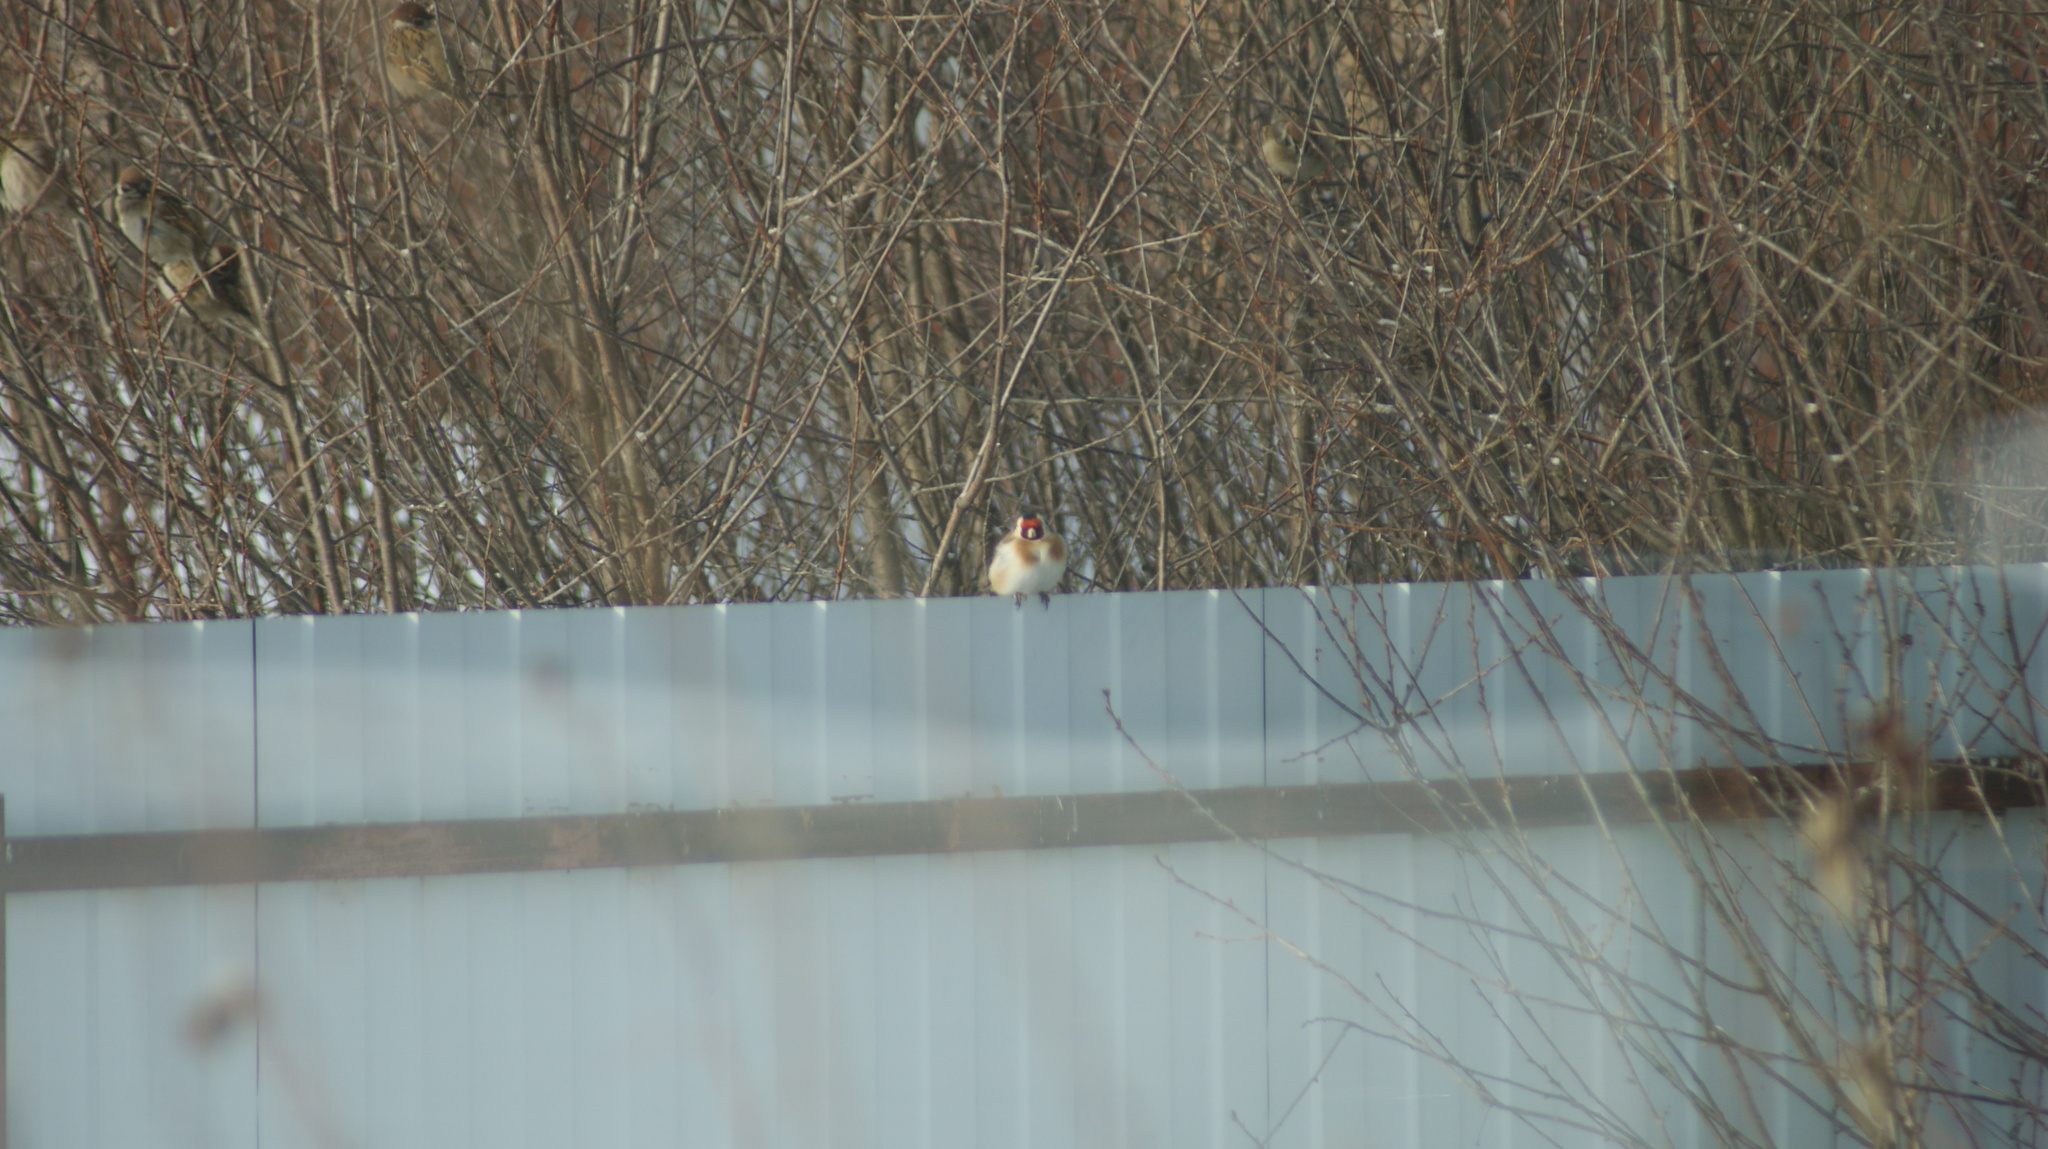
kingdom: Animalia
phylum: Chordata
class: Aves
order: Passeriformes
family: Fringillidae
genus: Carduelis
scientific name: Carduelis carduelis
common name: European goldfinch
